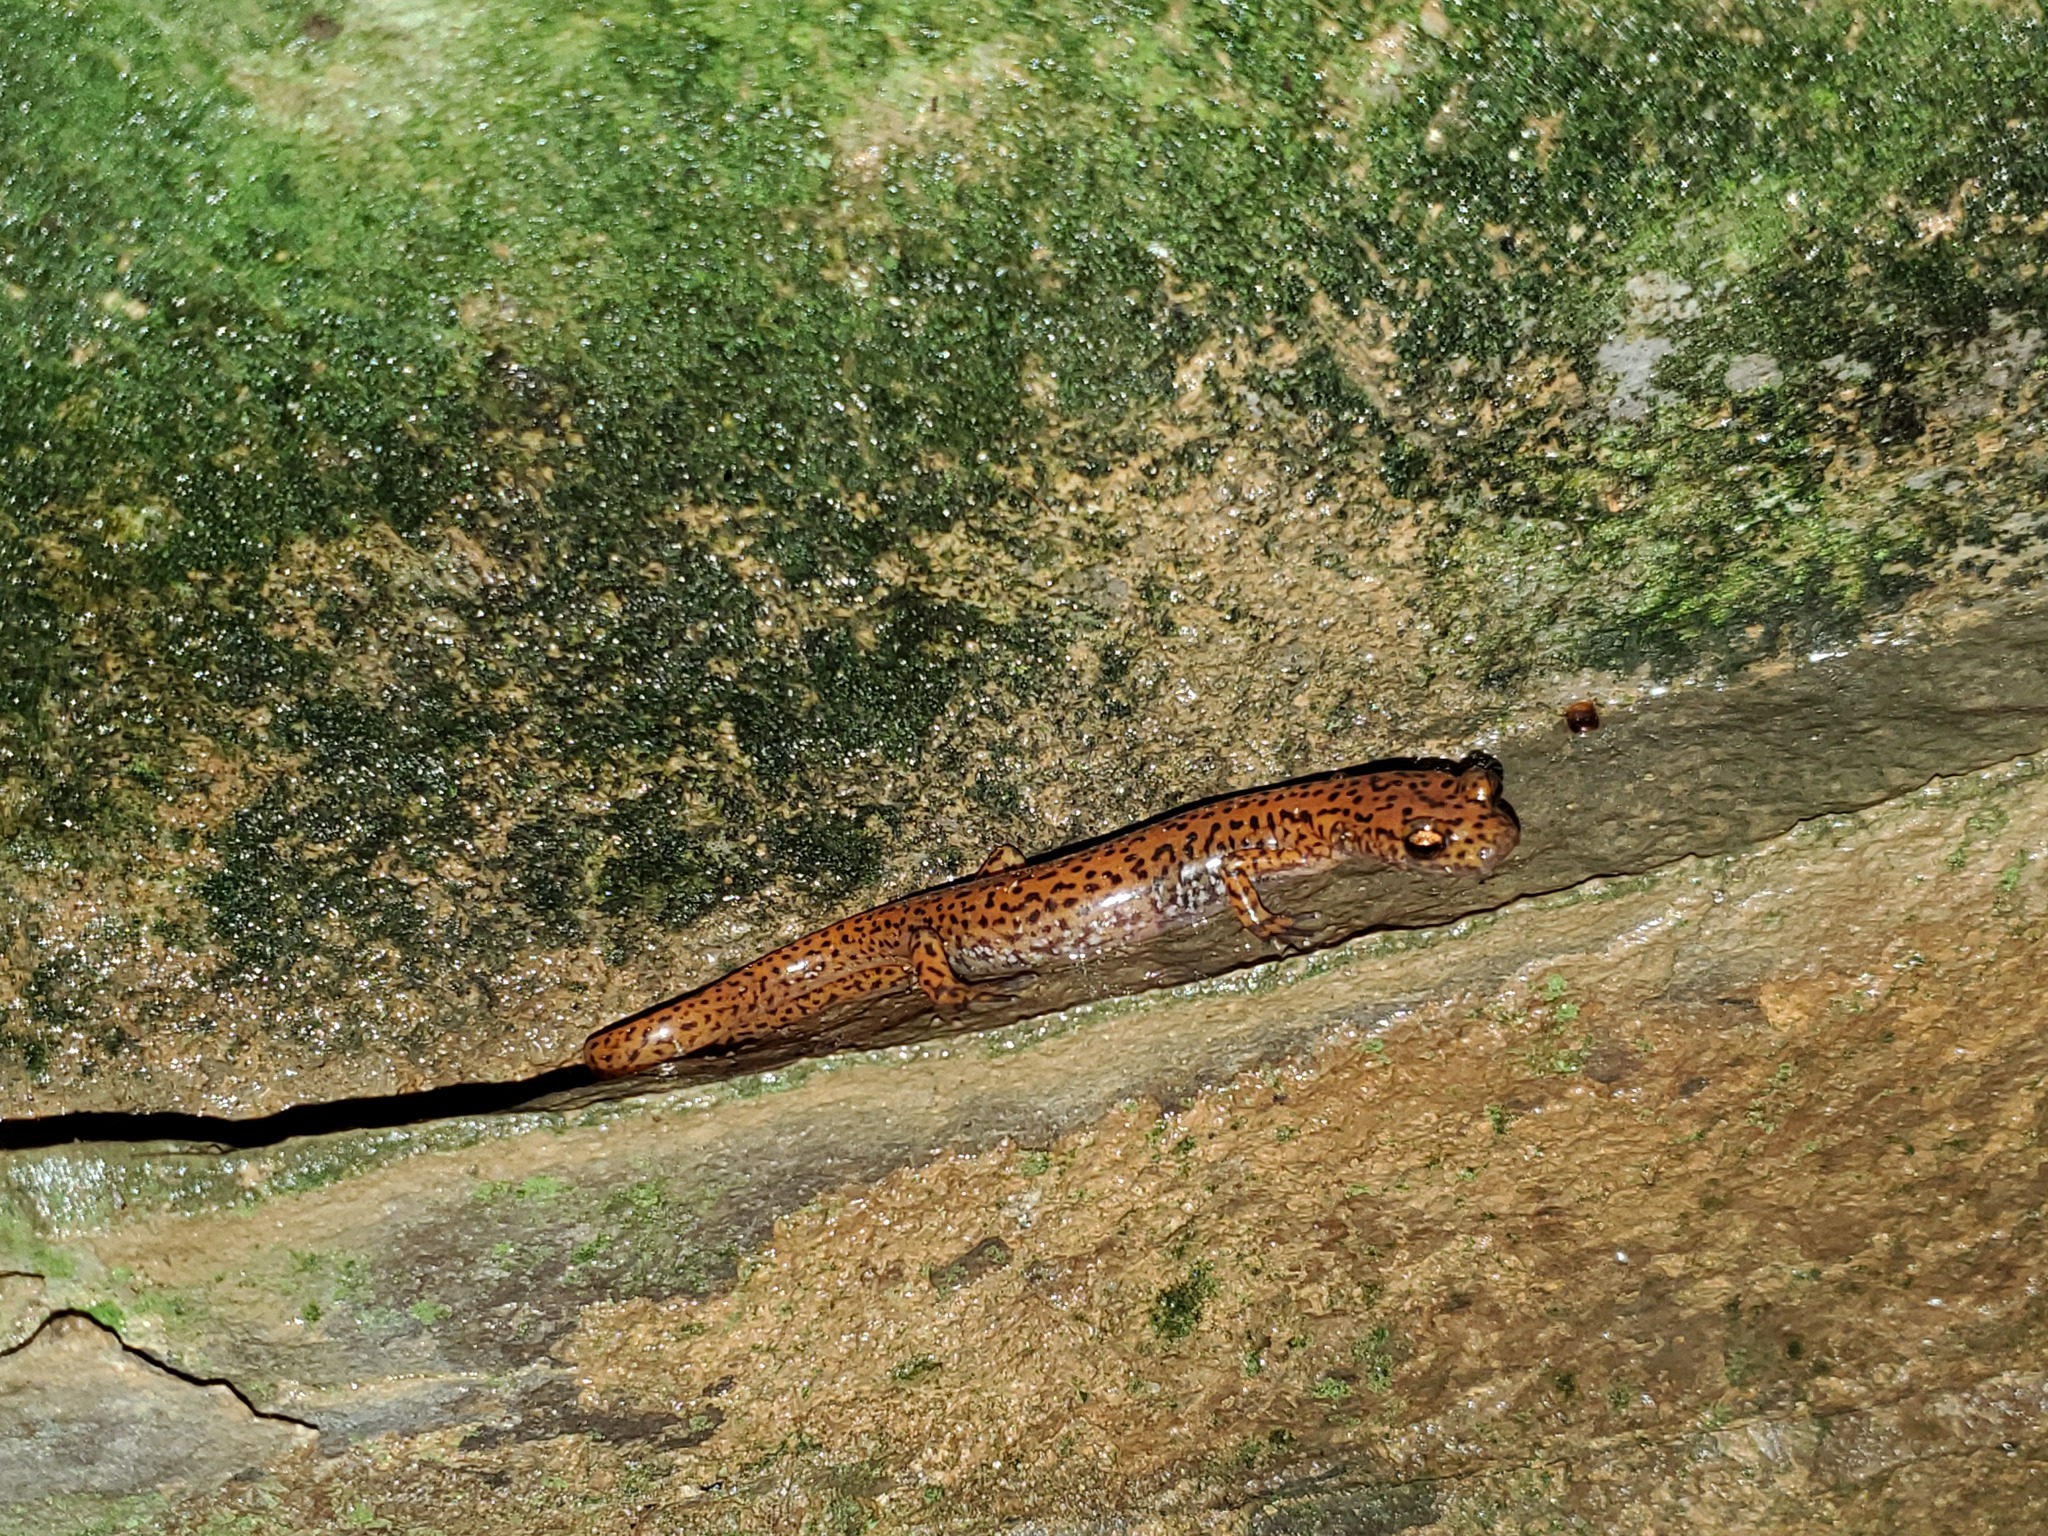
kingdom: Animalia
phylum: Chordata
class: Amphibia
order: Caudata
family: Plethodontidae
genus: Eurycea
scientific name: Eurycea lucifuga
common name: Cave salamander
